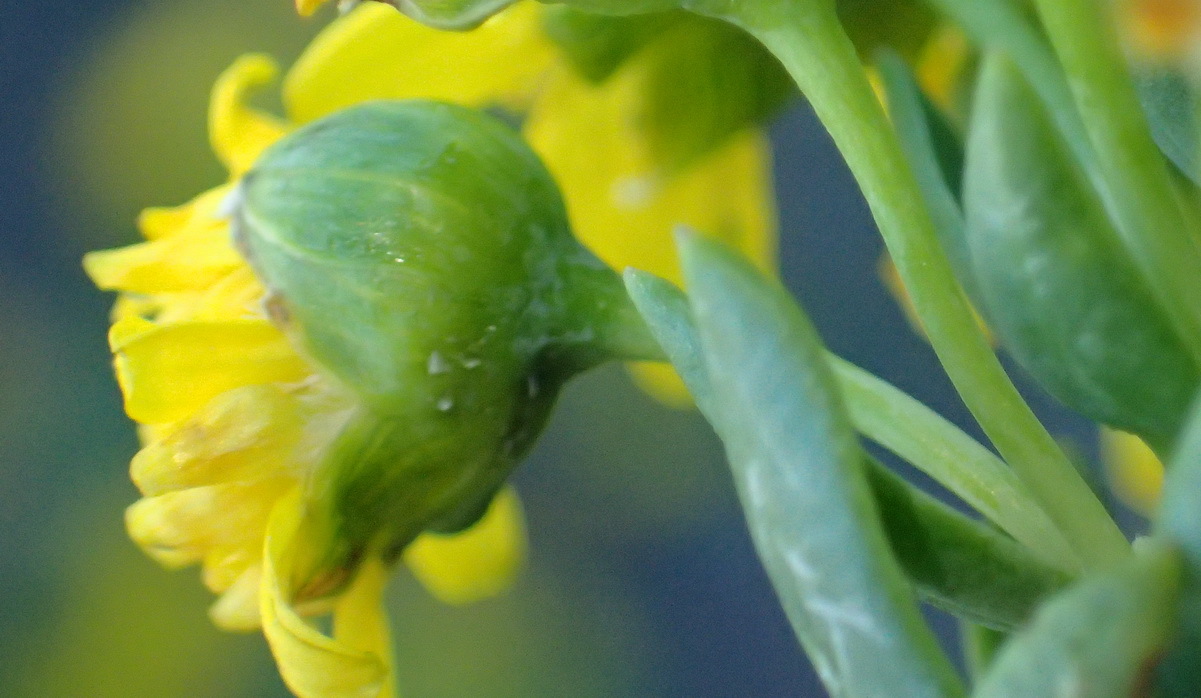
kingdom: Plantae
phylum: Tracheophyta
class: Magnoliopsida
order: Asterales
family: Asteraceae
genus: Euryops
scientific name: Euryops lateriflorus
